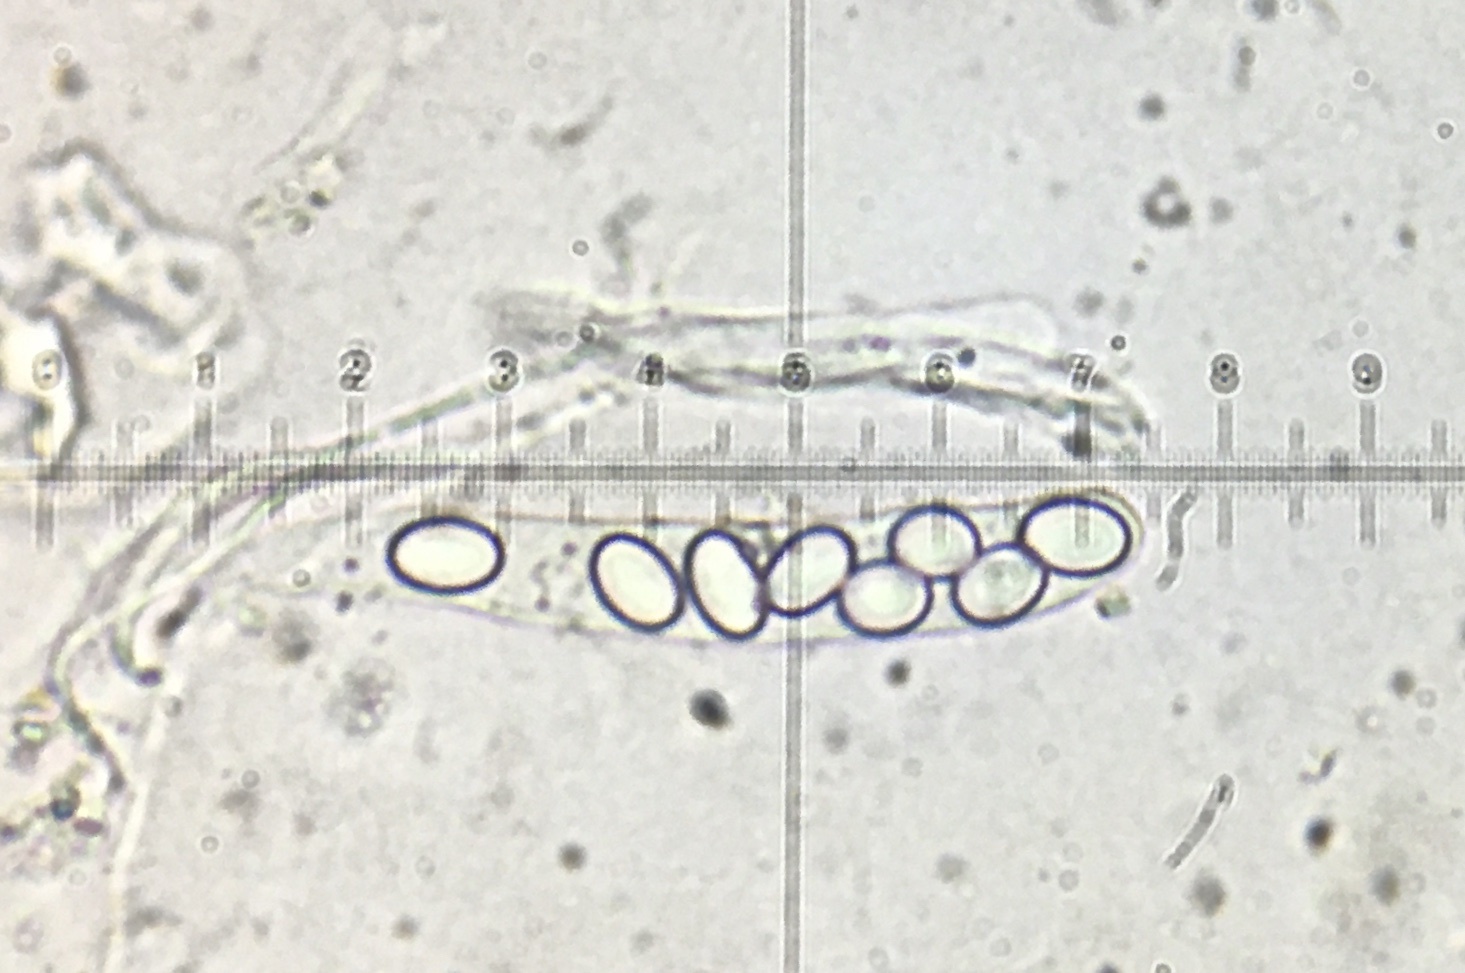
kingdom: Fungi
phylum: Ascomycota
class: Pezizomycetes
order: Pezizales
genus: Coprotus
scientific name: Coprotus lacteus
